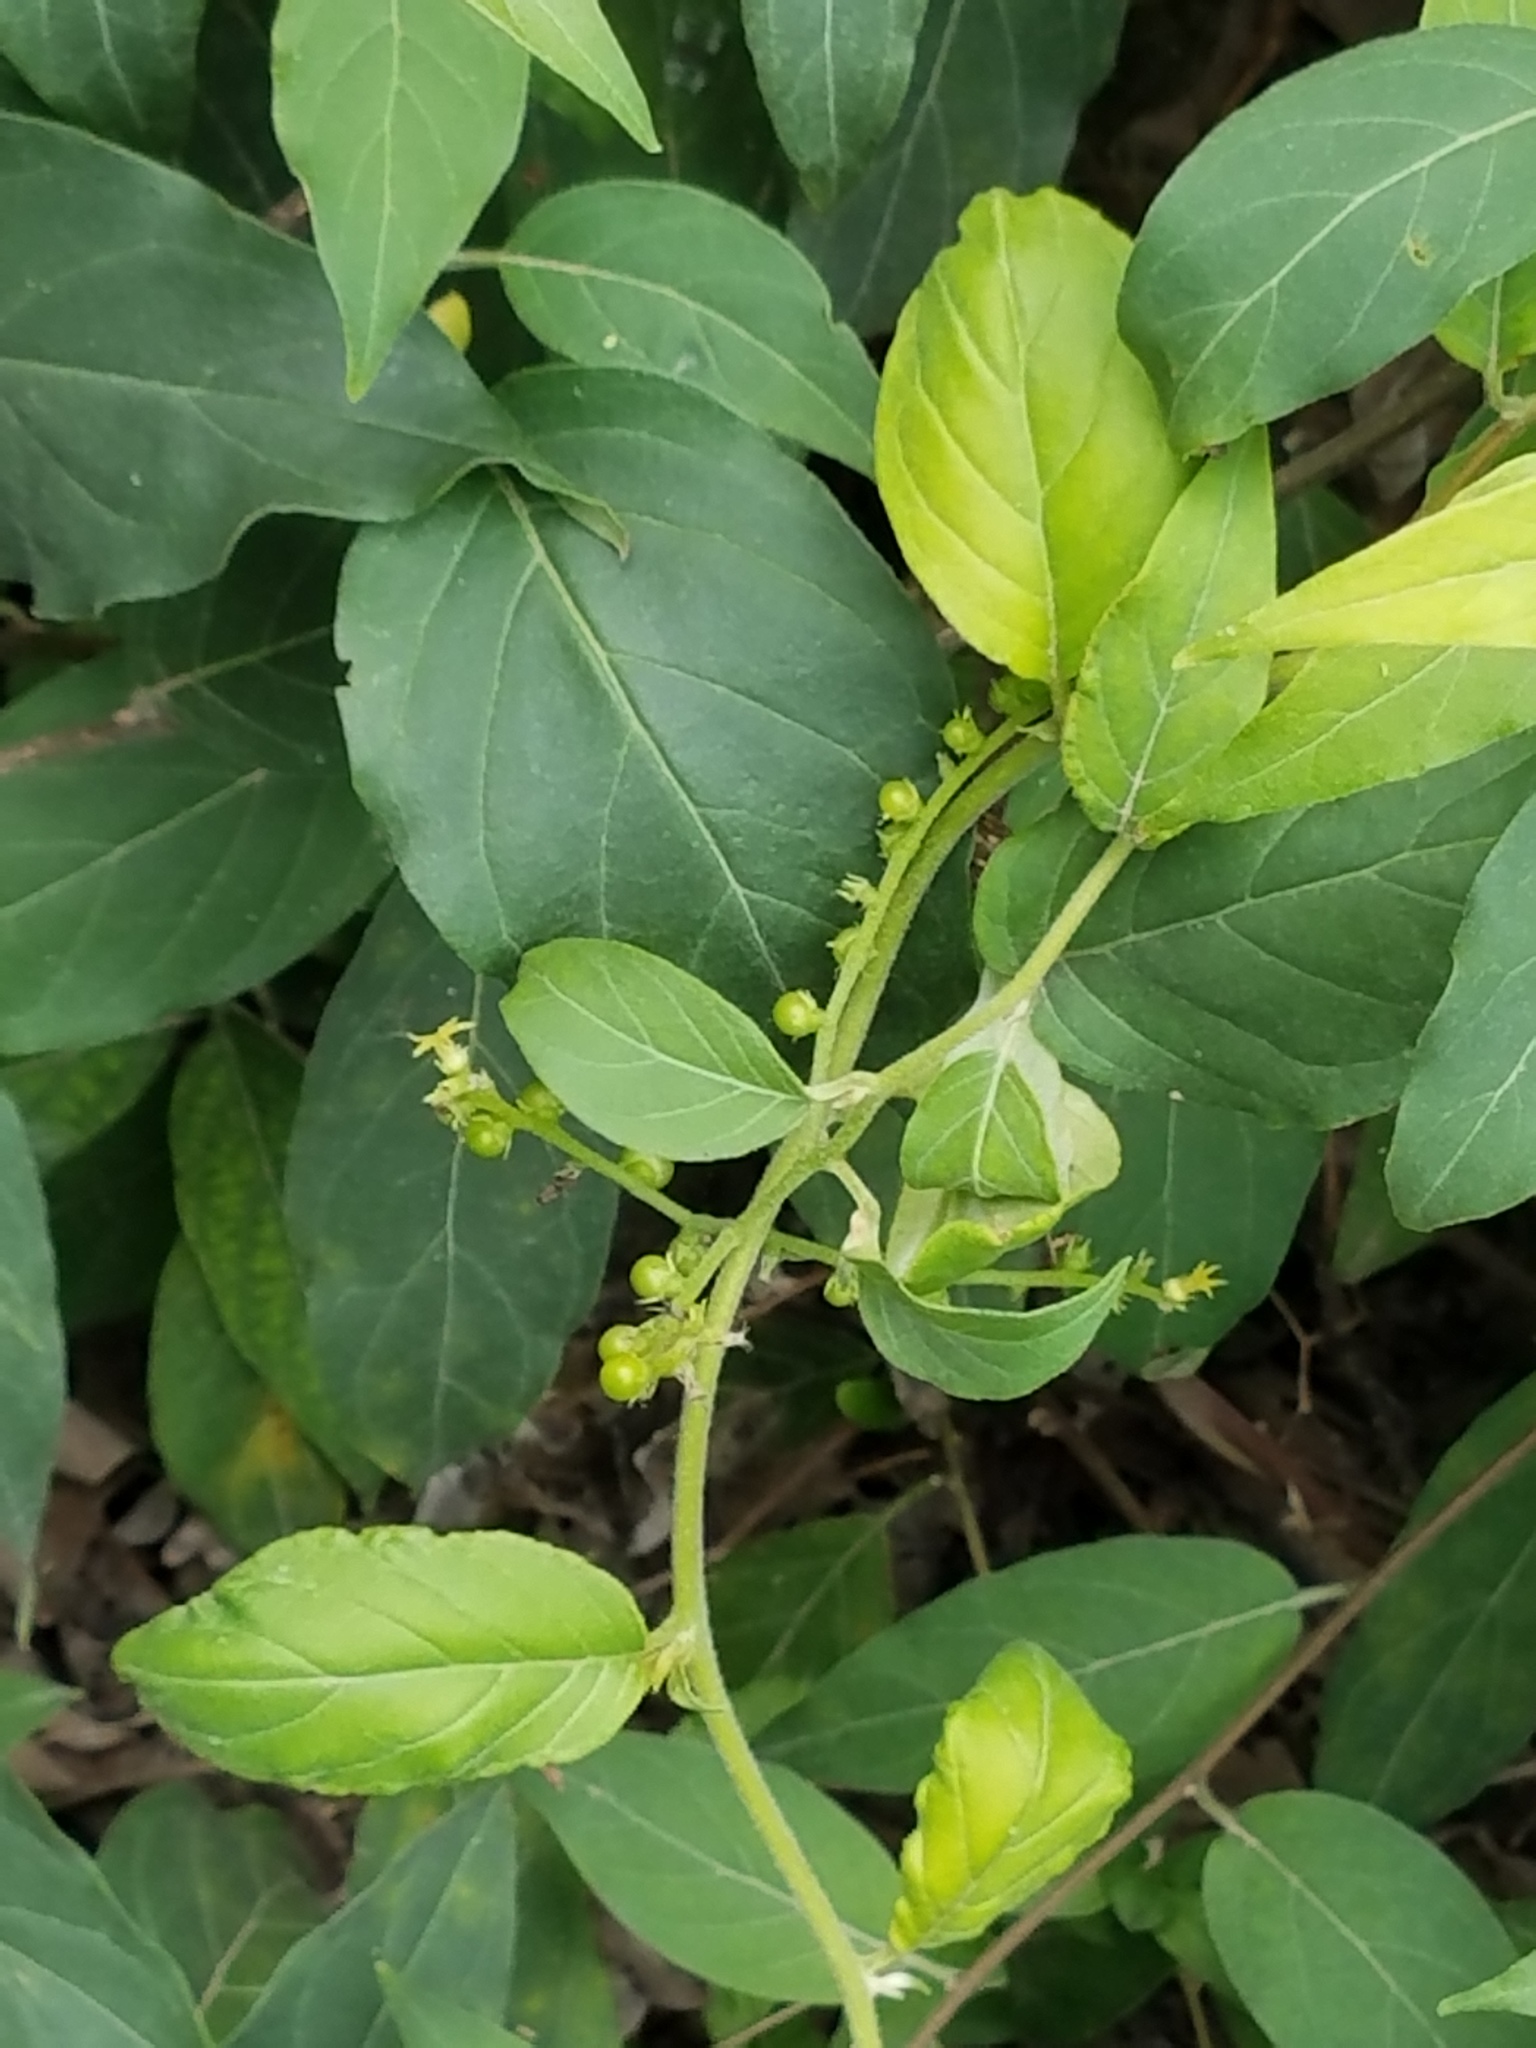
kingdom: Plantae
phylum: Tracheophyta
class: Magnoliopsida
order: Boraginales
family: Heliotropiaceae
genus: Myriopus
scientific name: Myriopus volubilis
